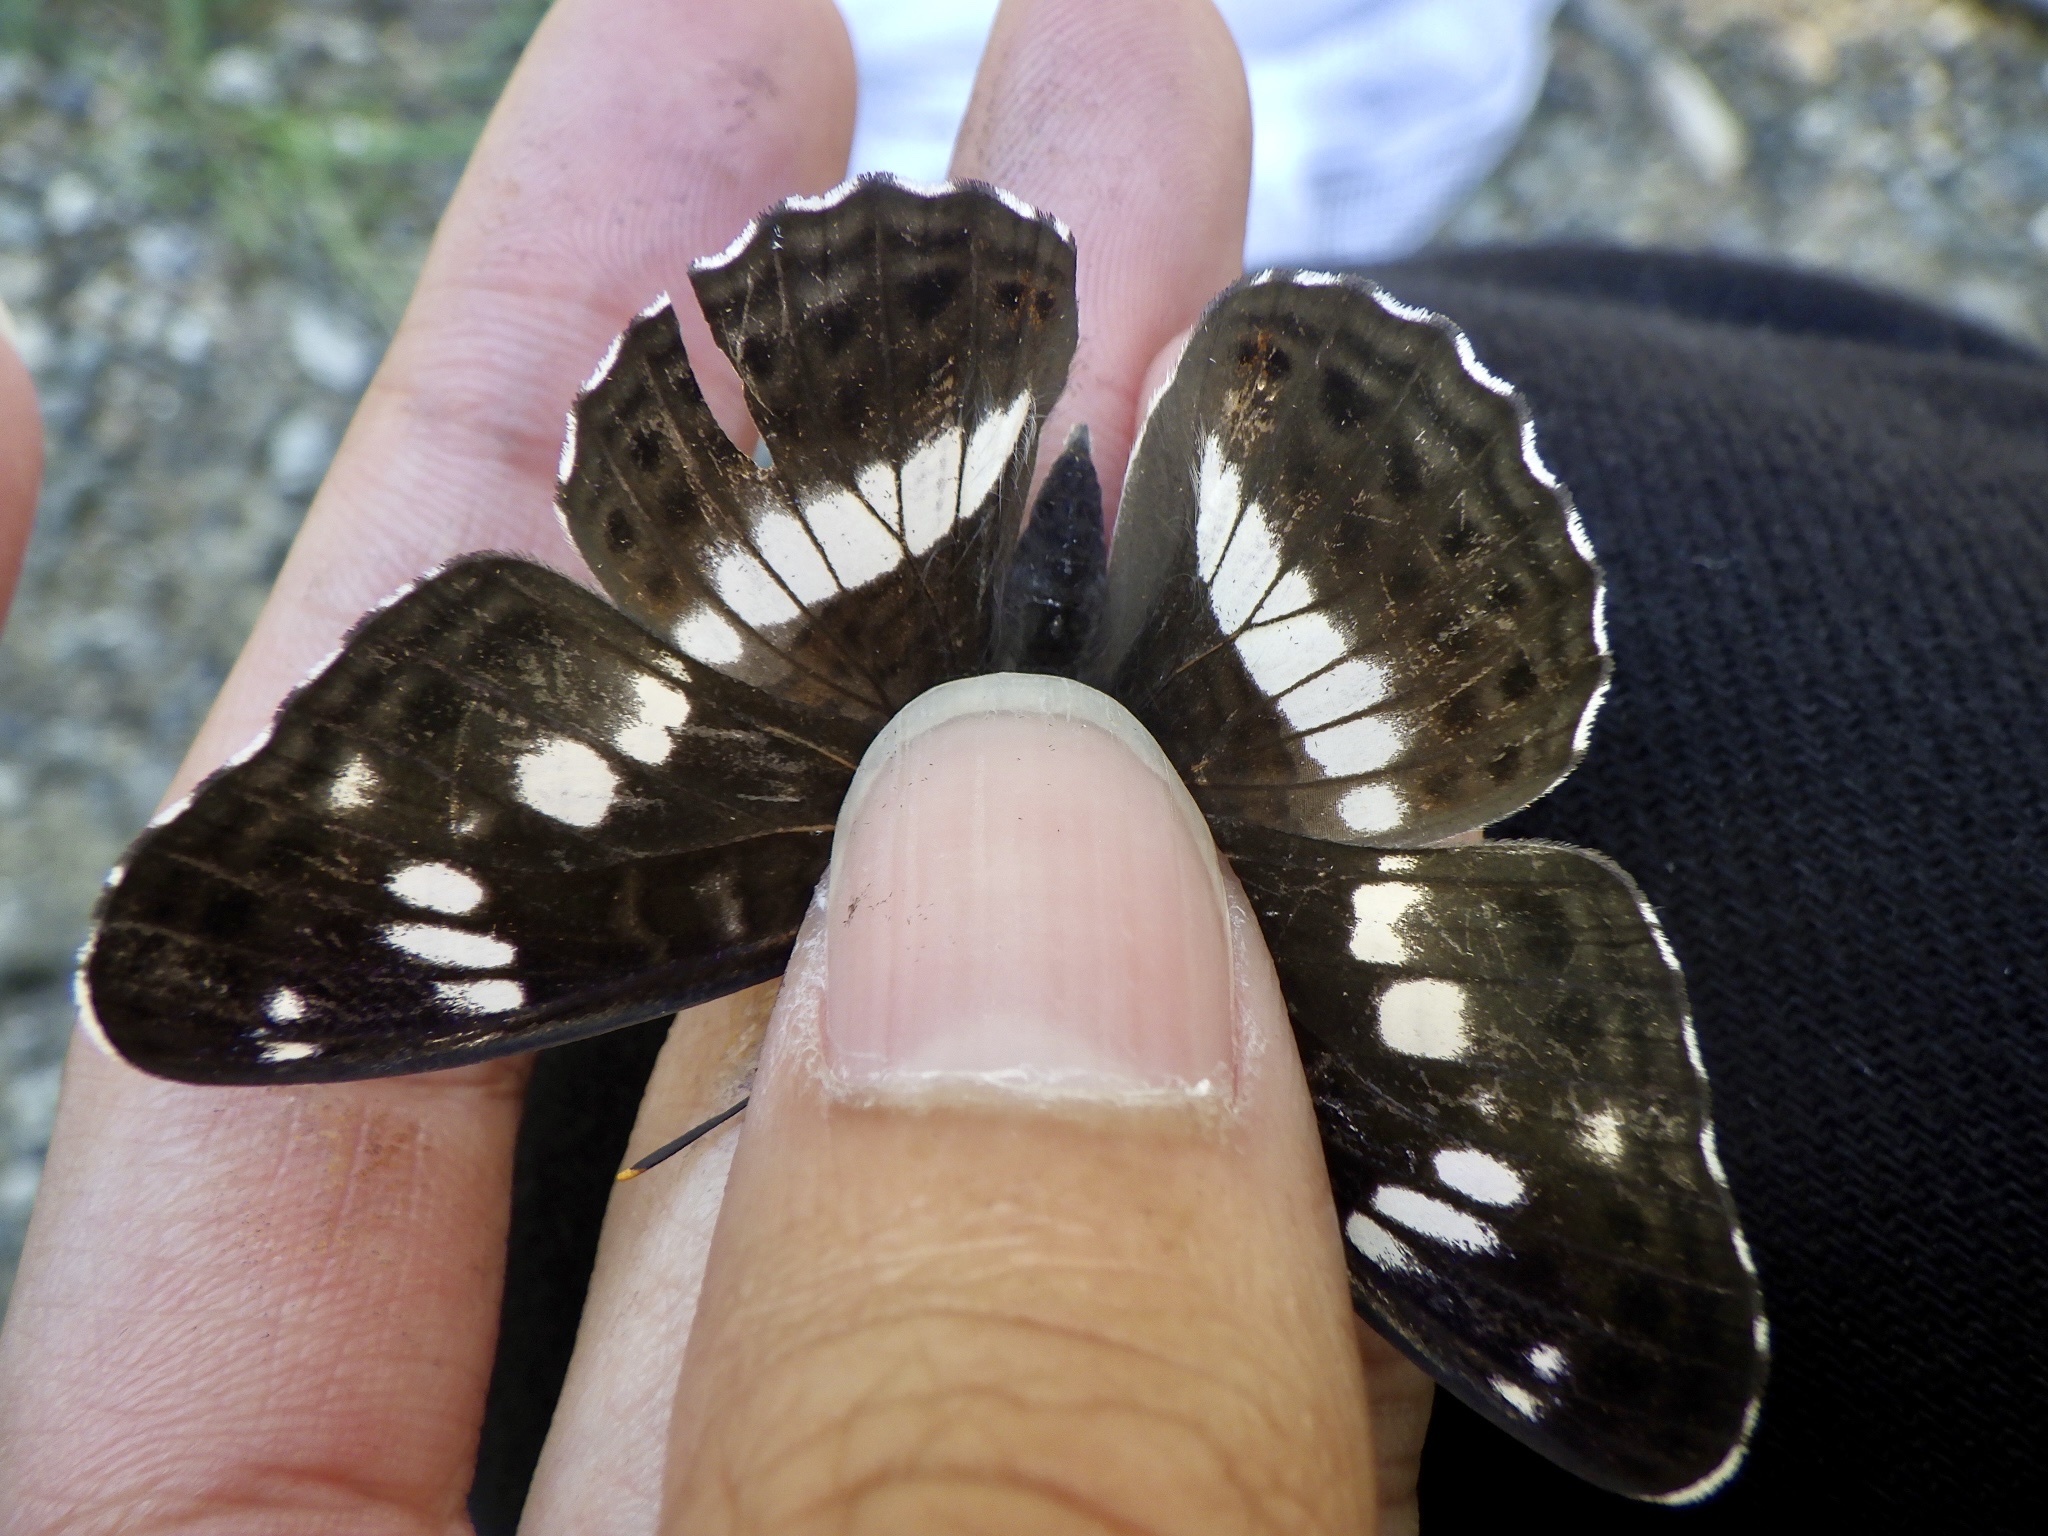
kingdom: Animalia
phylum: Arthropoda
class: Insecta
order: Lepidoptera
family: Nymphalidae
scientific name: Nymphalidae
